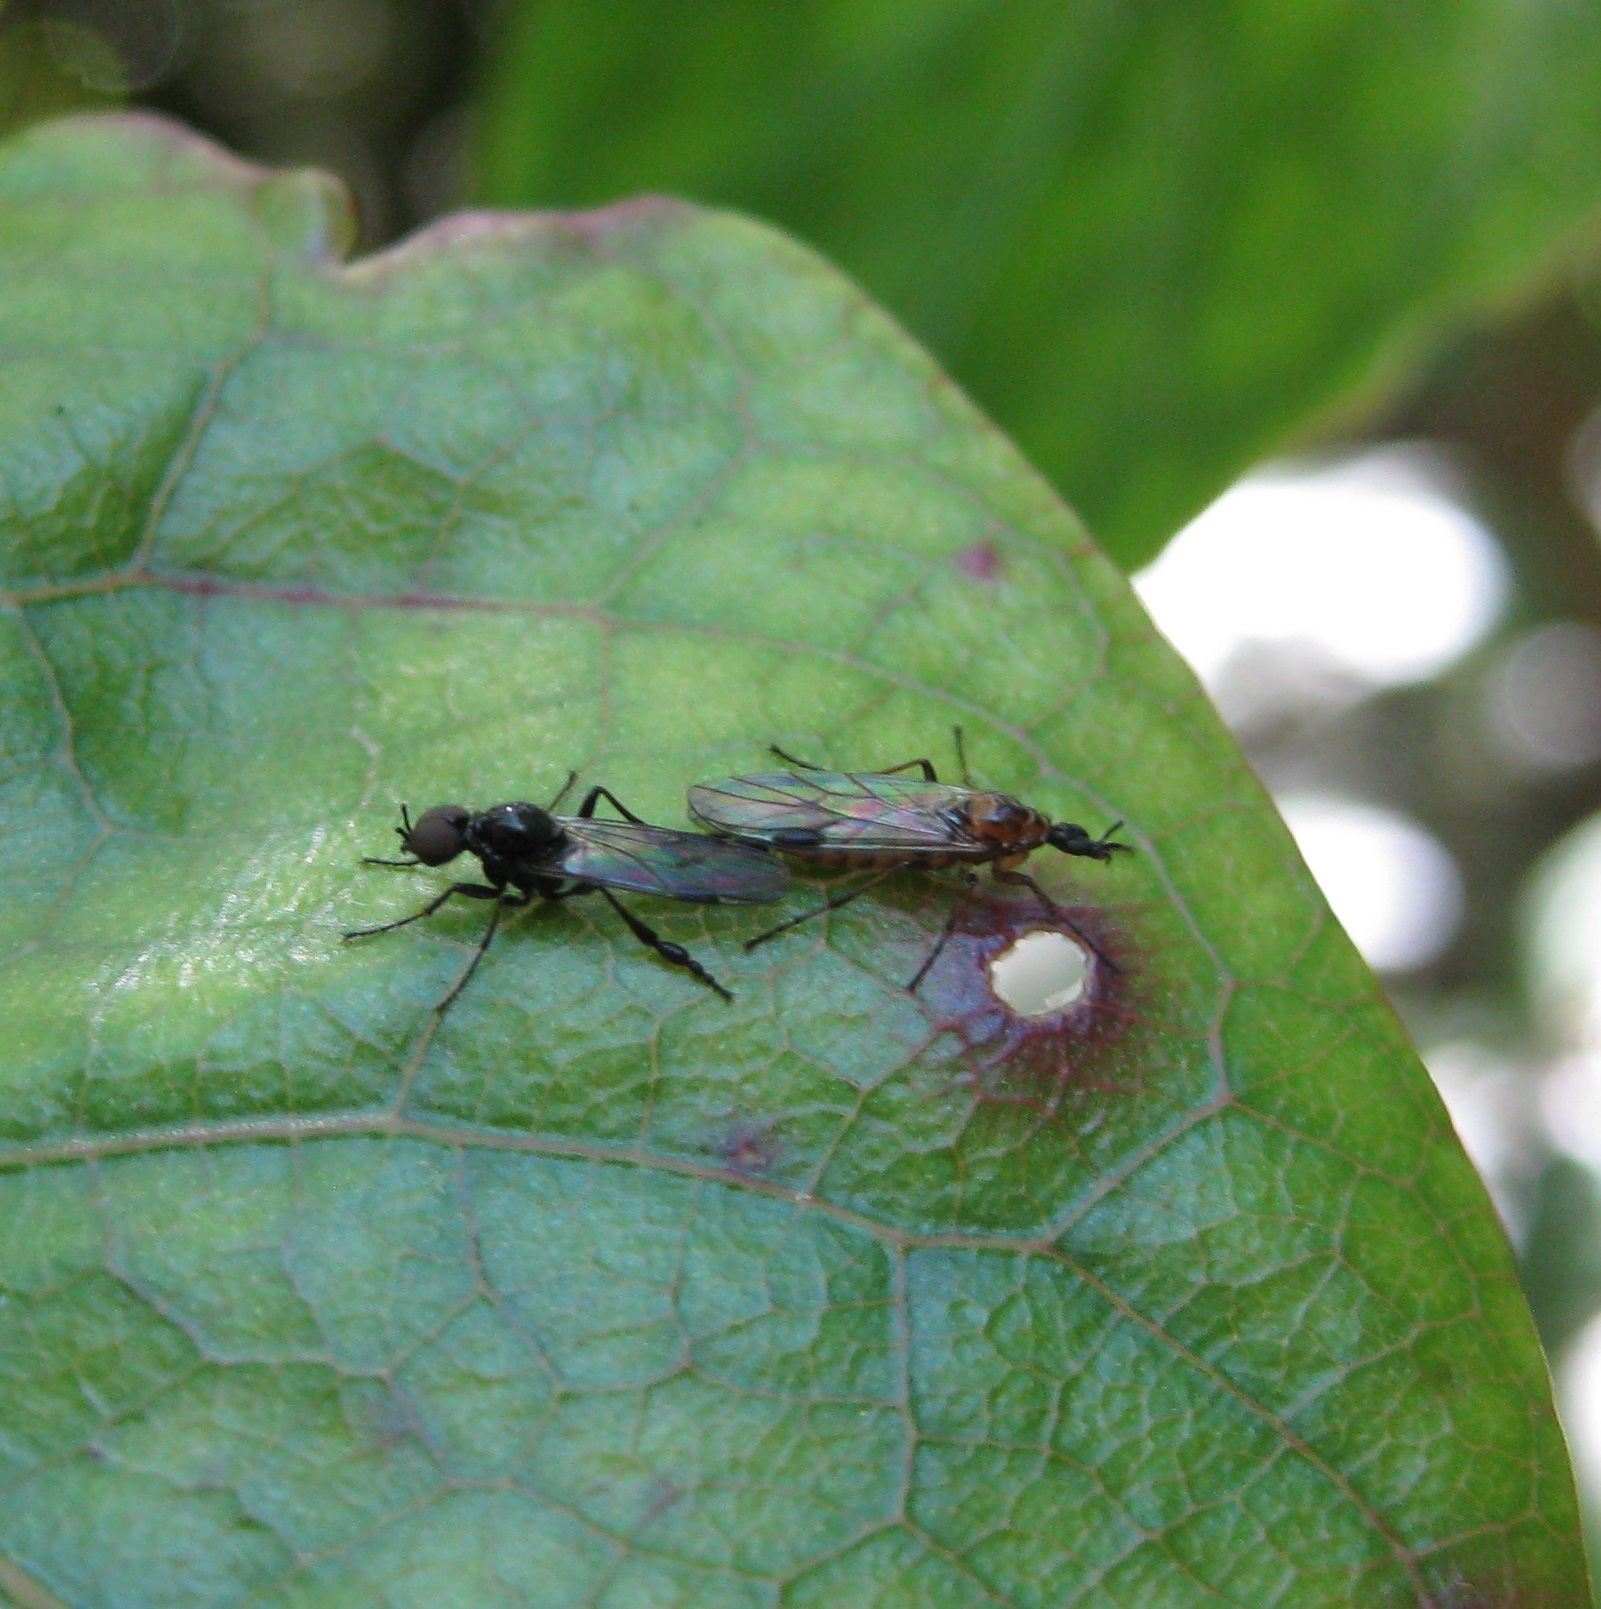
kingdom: Animalia
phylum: Arthropoda
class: Insecta
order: Diptera
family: Bibionidae
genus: Dilophus
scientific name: Dilophus segnis
